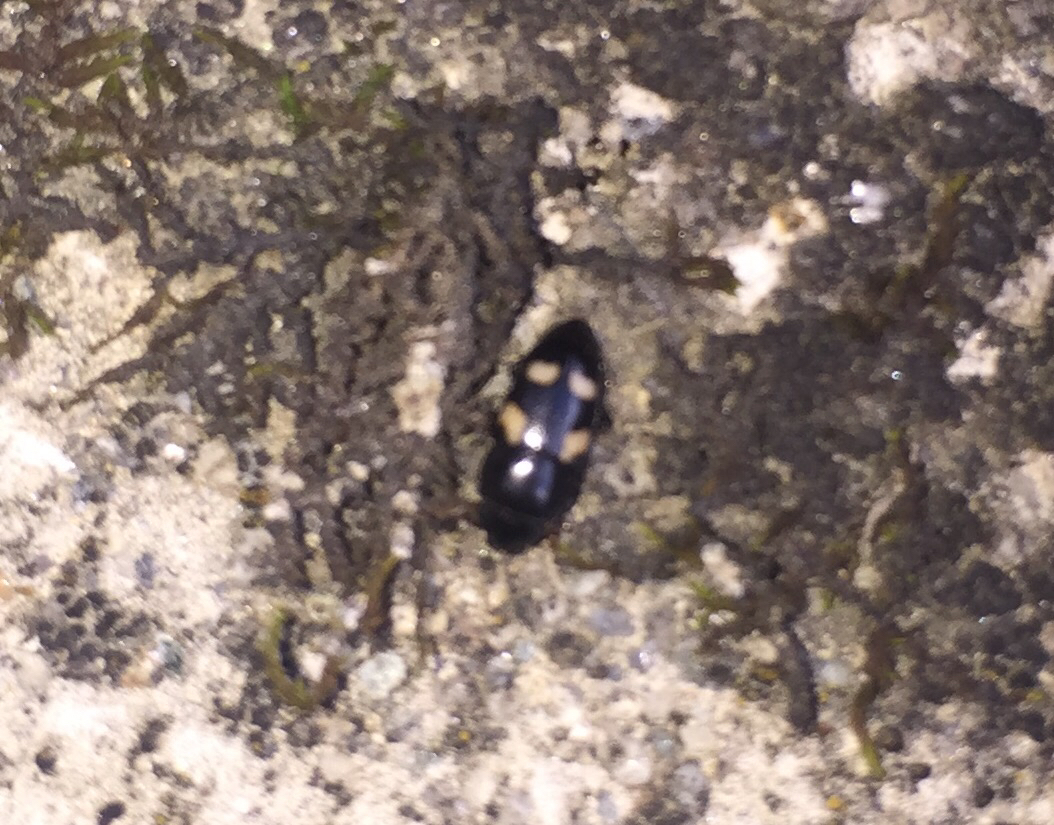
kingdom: Animalia
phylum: Arthropoda
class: Insecta
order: Coleoptera
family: Nitidulidae
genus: Glischrochilus
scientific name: Glischrochilus quadrisignatus
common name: Picnic beetle
